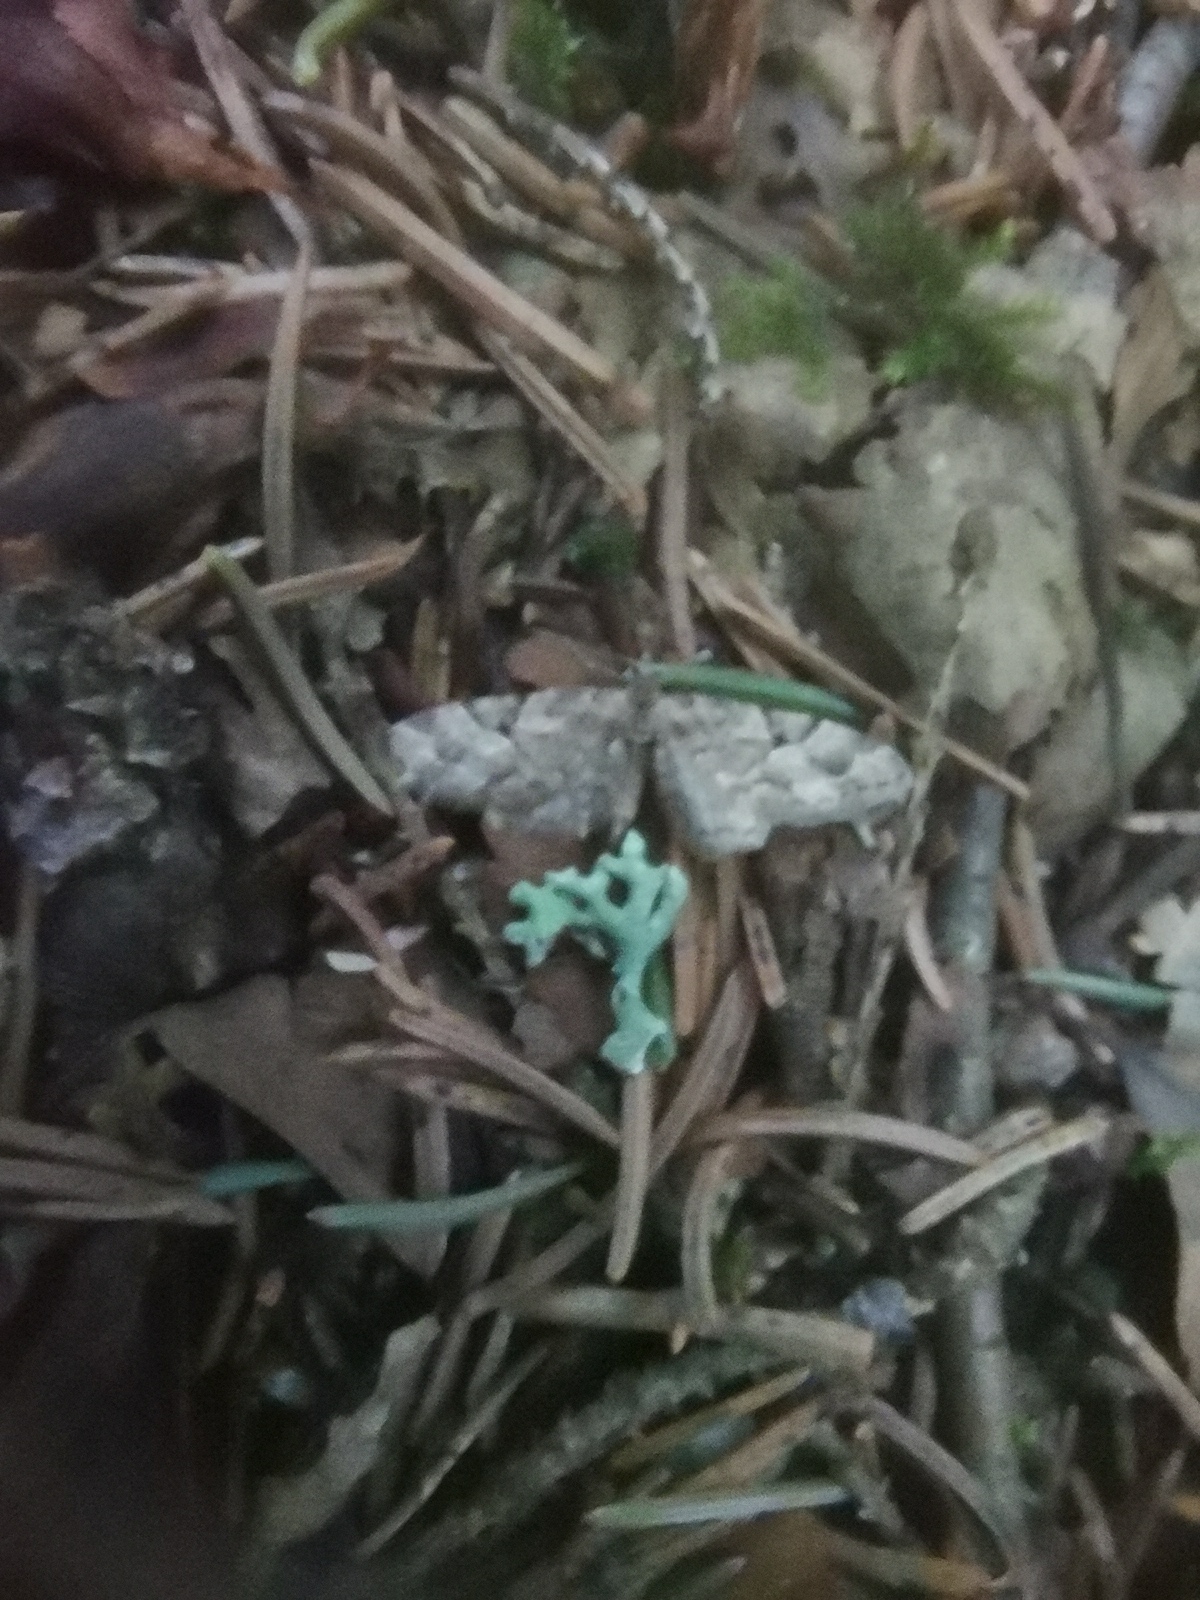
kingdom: Animalia
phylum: Arthropoda
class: Insecta
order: Lepidoptera
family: Geometridae
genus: Eupithecia
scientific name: Eupithecia lanceata
